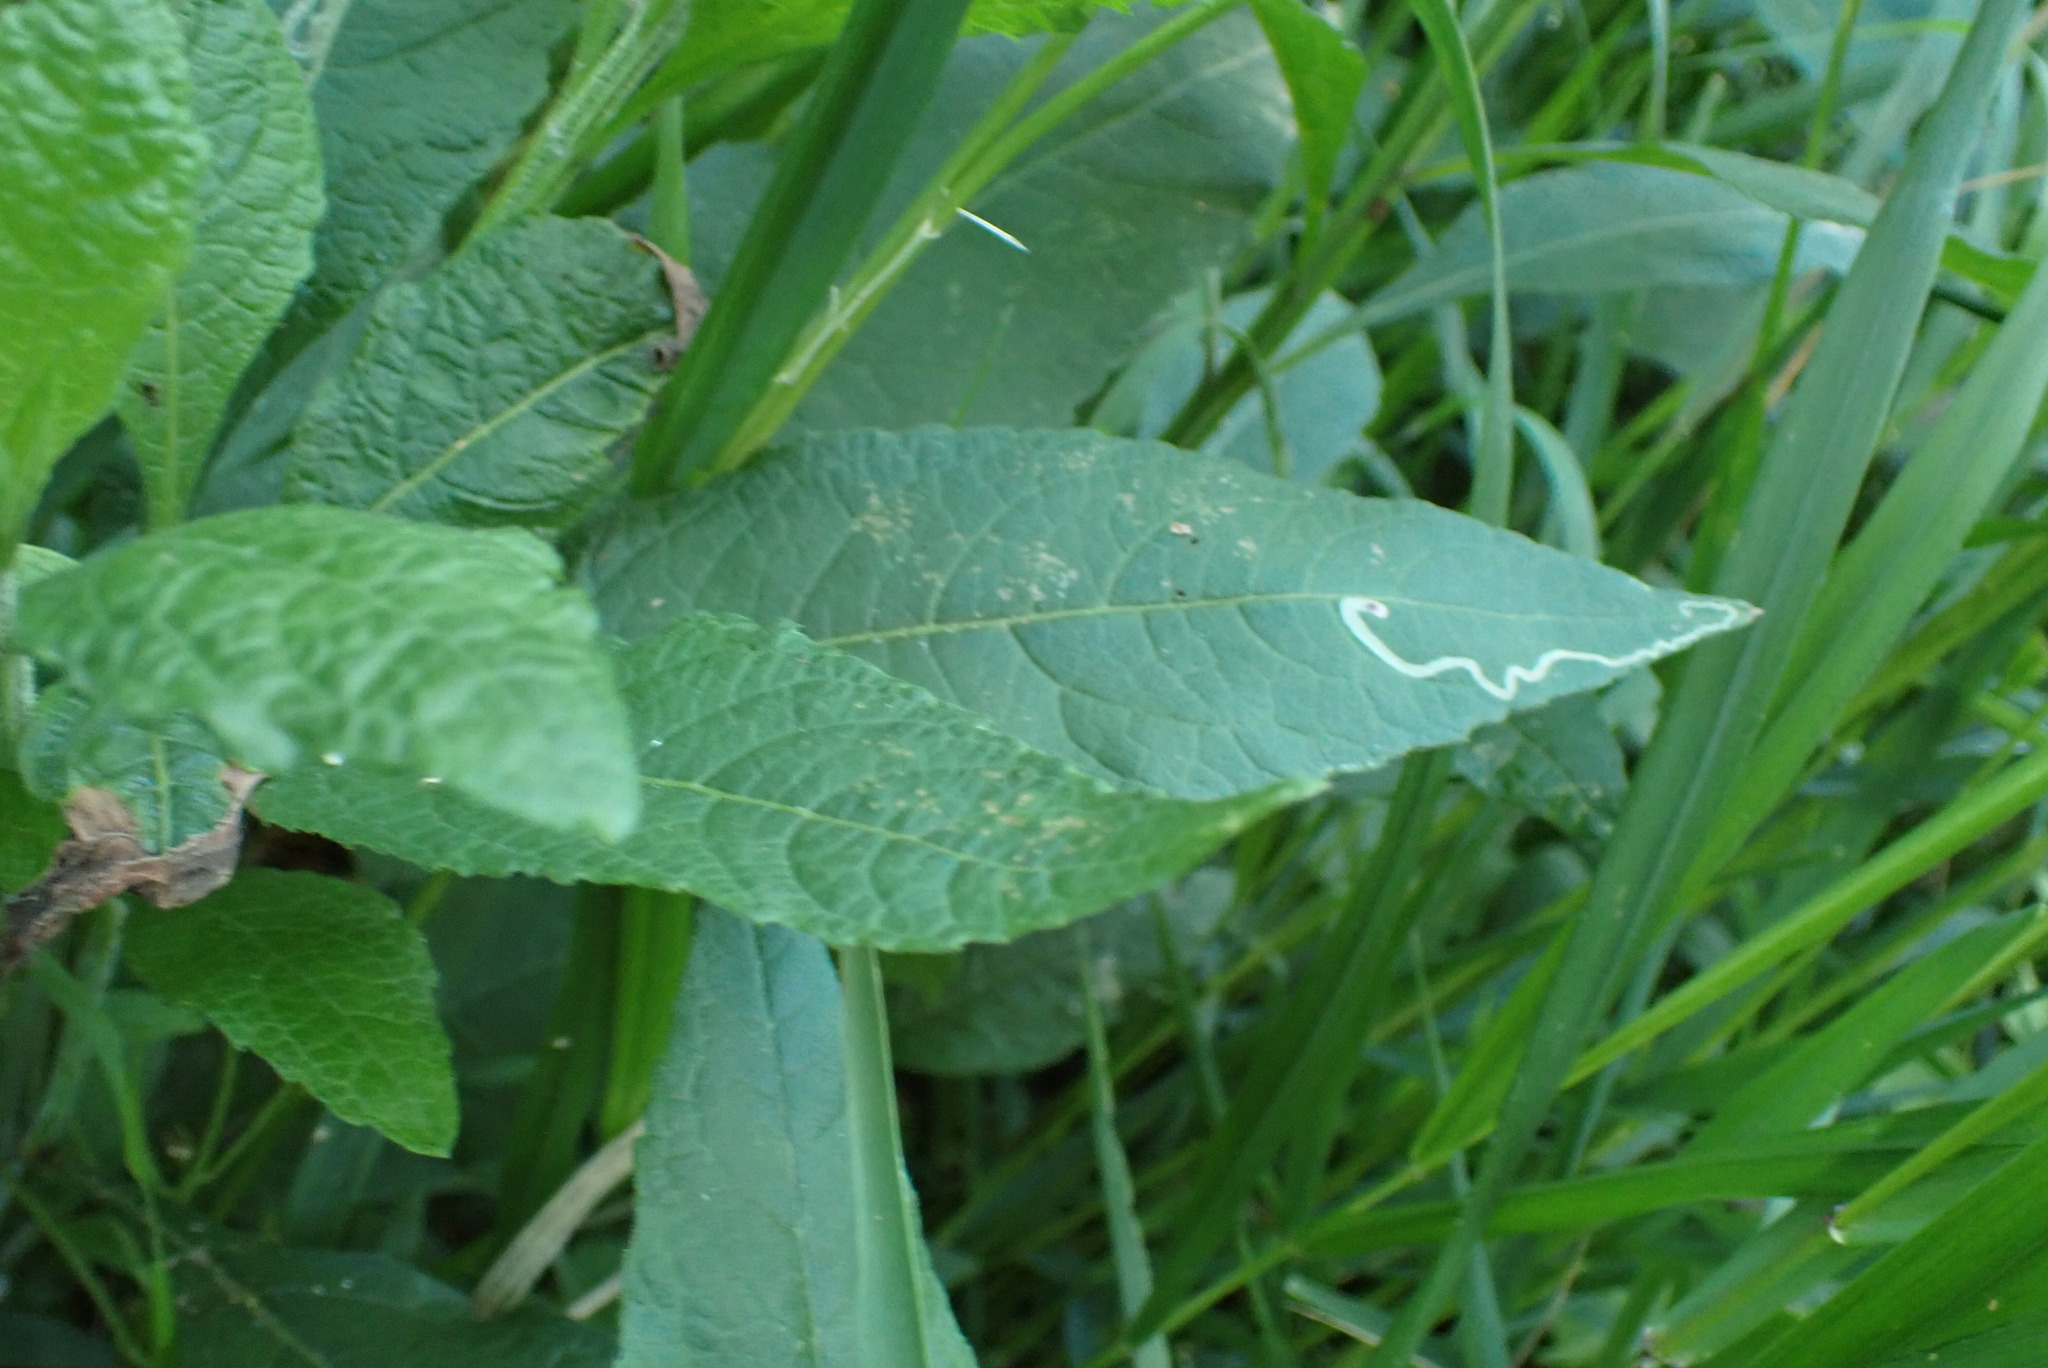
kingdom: Animalia
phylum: Arthropoda
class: Insecta
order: Diptera
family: Agromyzidae
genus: Liriomyza
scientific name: Liriomyza
